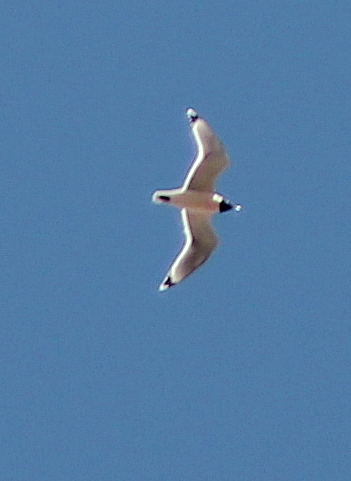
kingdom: Animalia
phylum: Chordata
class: Aves
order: Charadriiformes
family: Laridae
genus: Leucophaeus
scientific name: Leucophaeus pipixcan
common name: Franklin's gull
